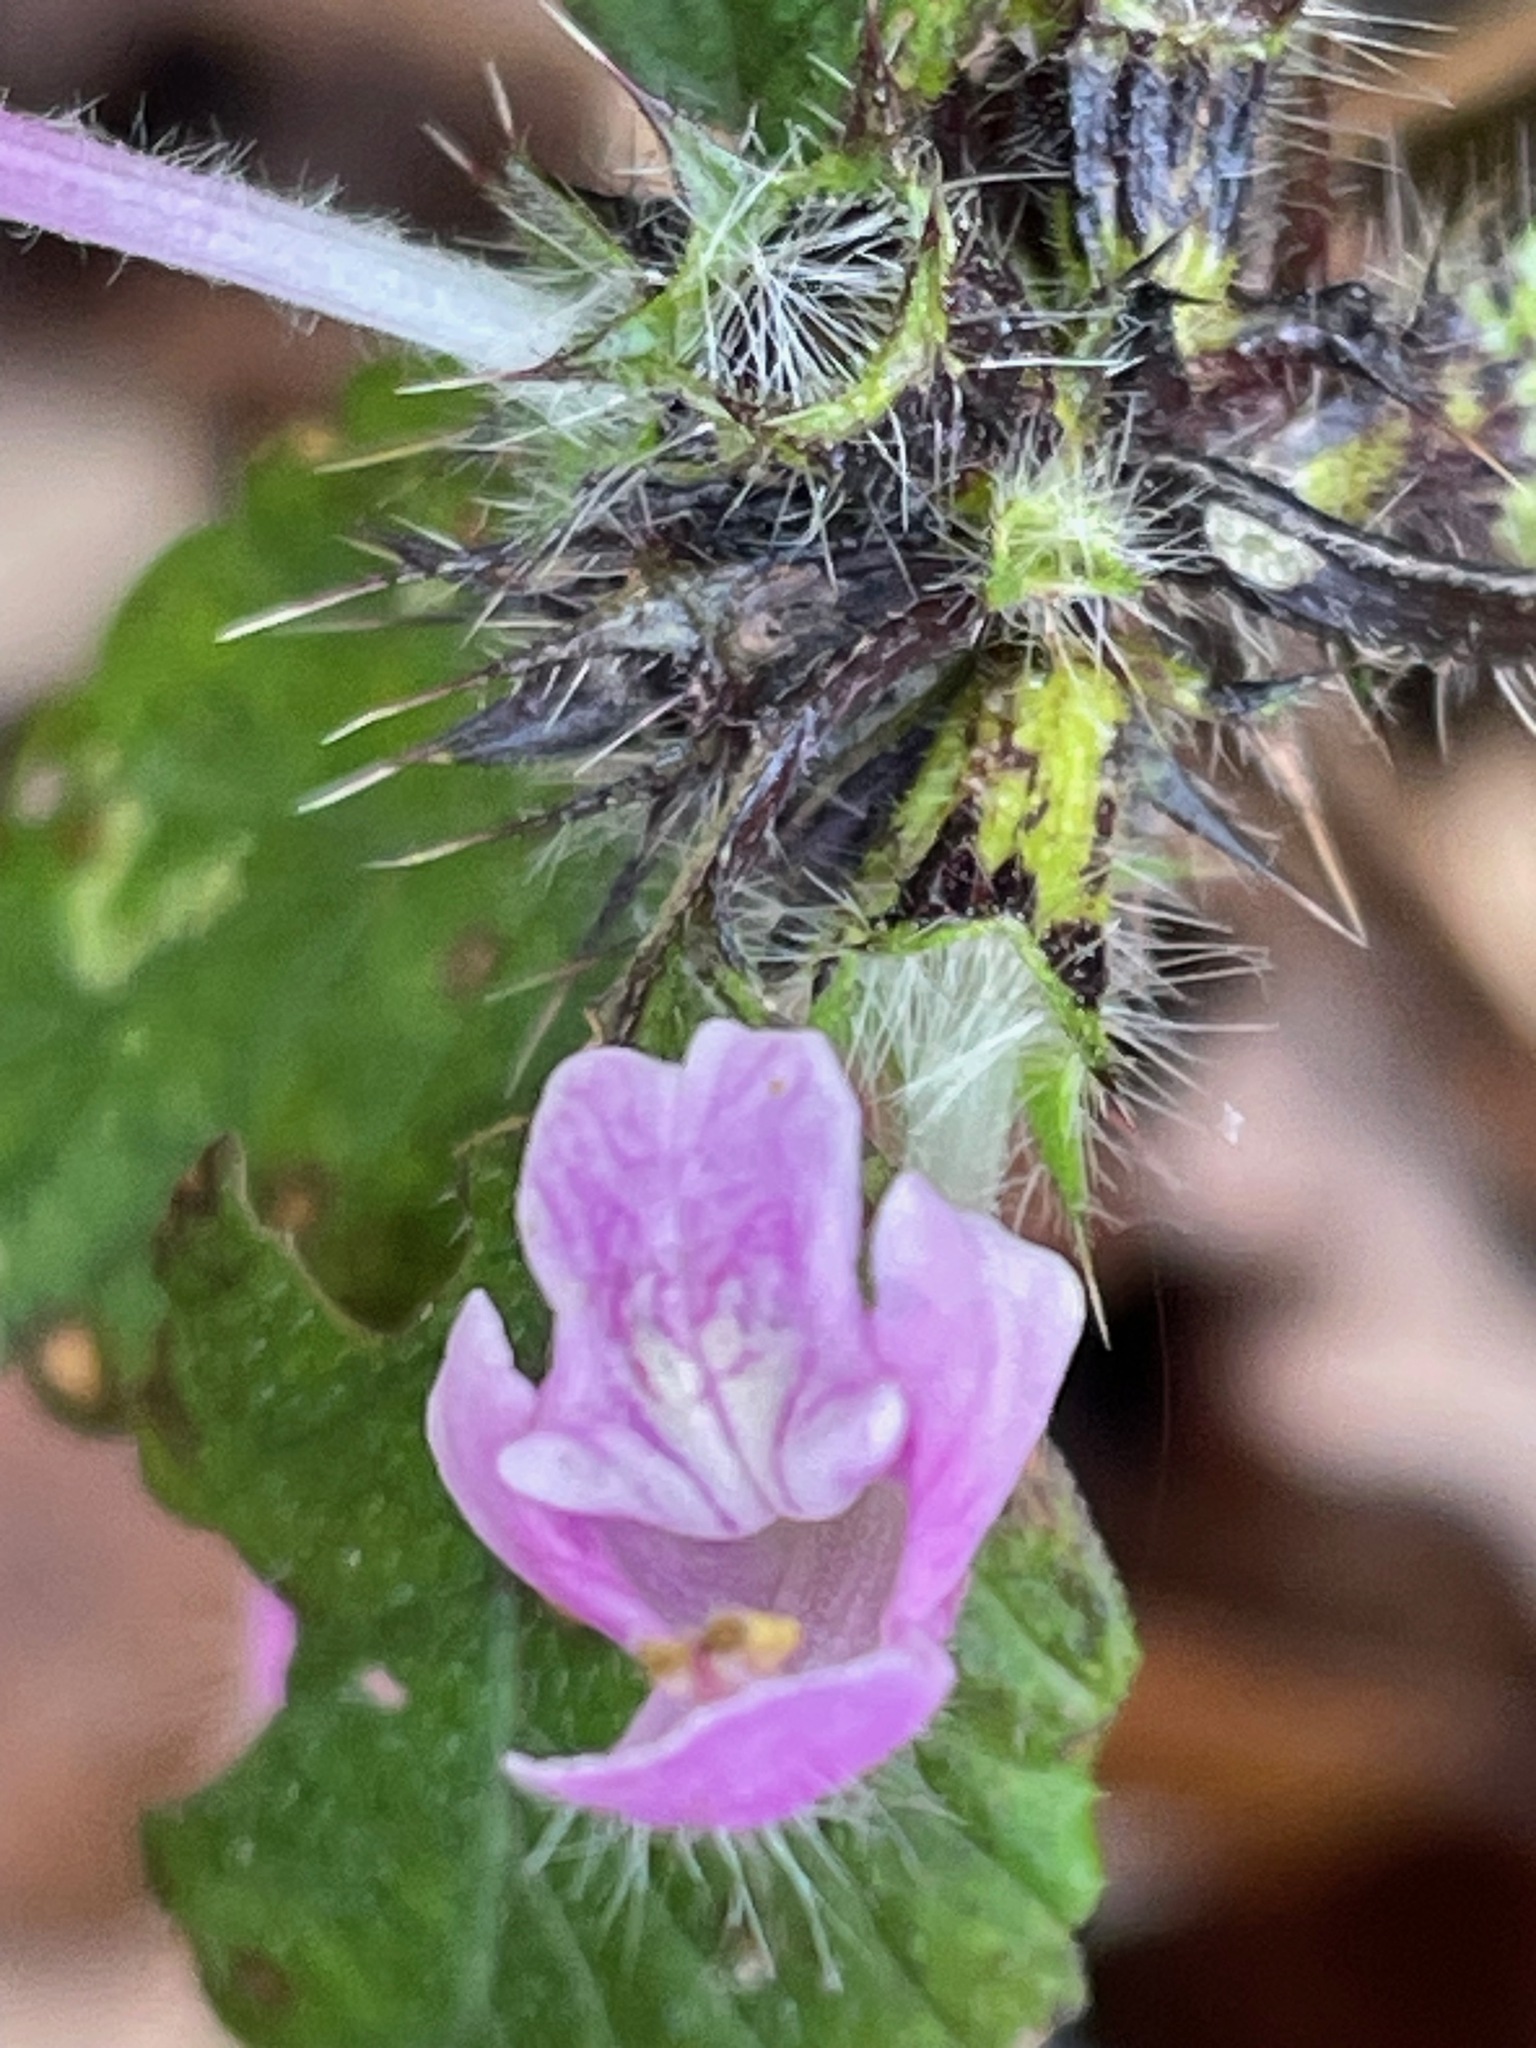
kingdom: Plantae
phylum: Tracheophyta
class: Magnoliopsida
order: Lamiales
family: Lamiaceae
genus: Galeopsis
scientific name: Galeopsis bifida
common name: Bifid hemp-nettle
